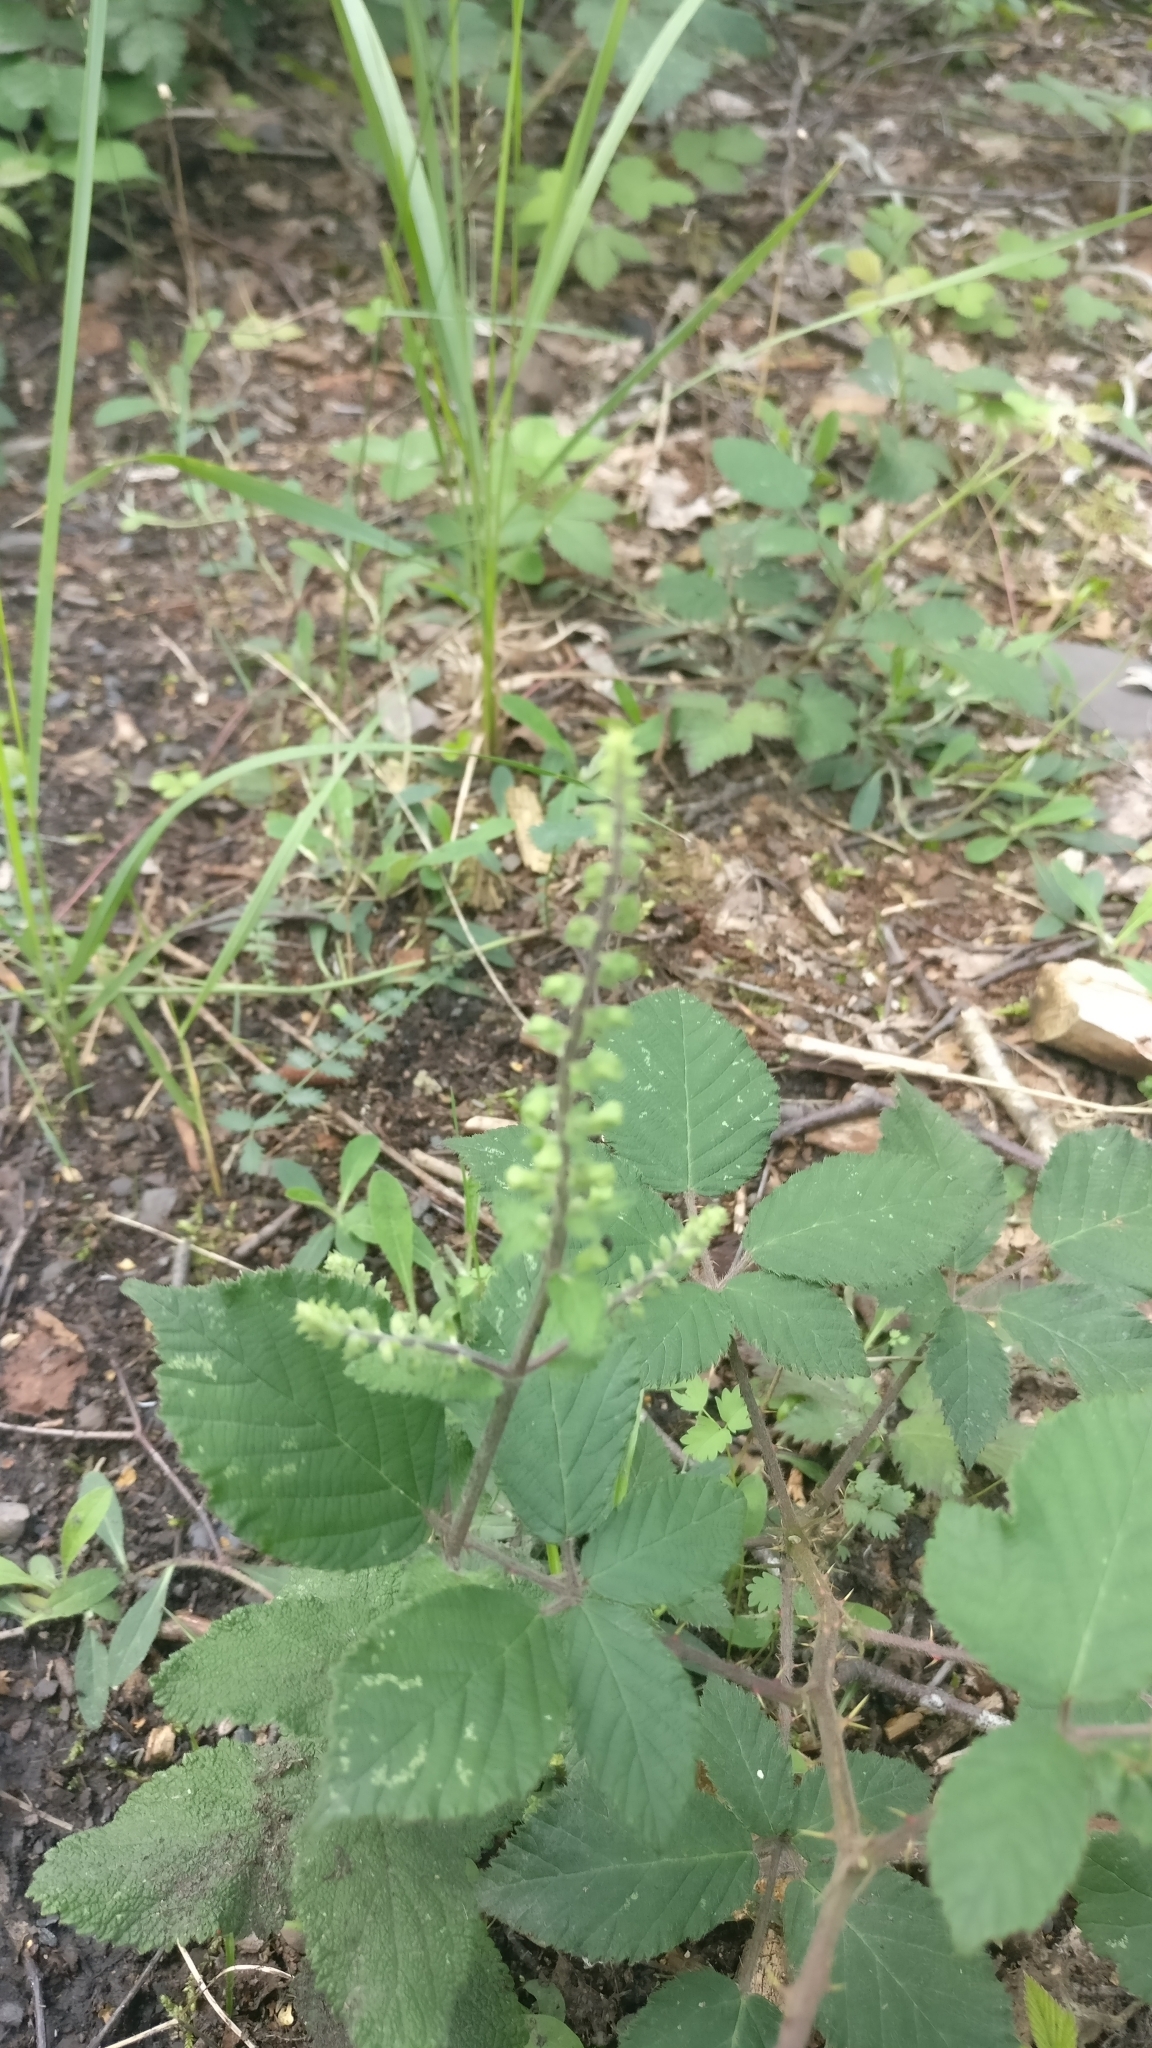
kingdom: Plantae
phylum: Tracheophyta
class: Magnoliopsida
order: Lamiales
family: Lamiaceae
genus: Teucrium
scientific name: Teucrium scorodonia
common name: Woodland germander
